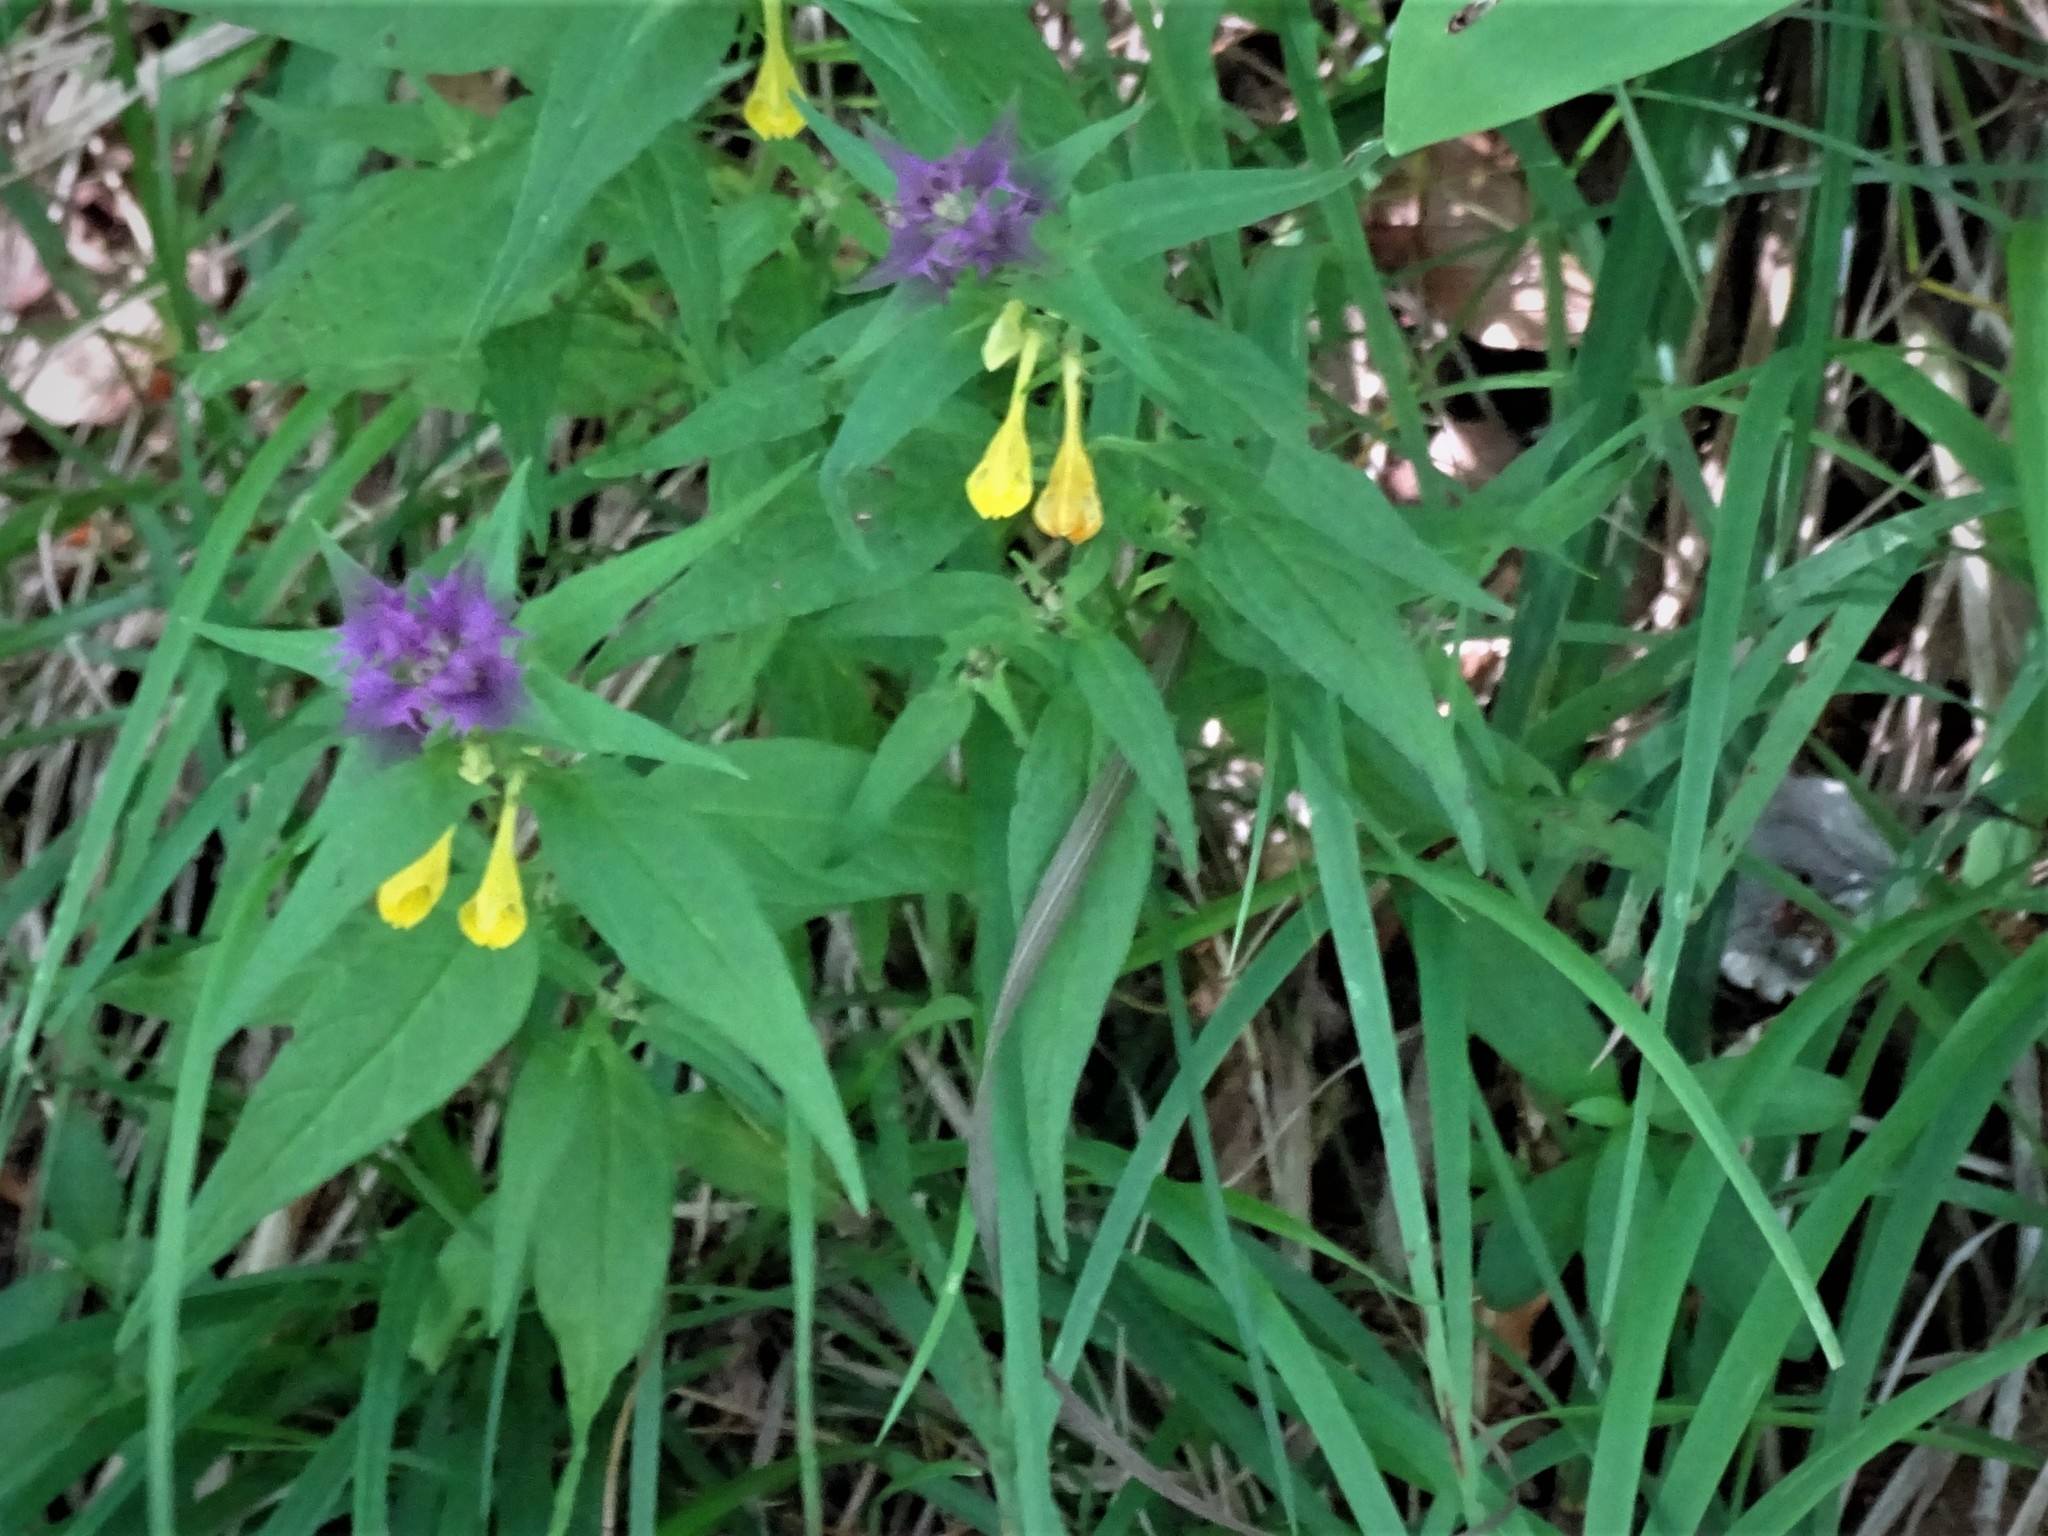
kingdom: Plantae
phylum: Tracheophyta
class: Magnoliopsida
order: Lamiales
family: Orobanchaceae
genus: Melampyrum
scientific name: Melampyrum nemorosum
